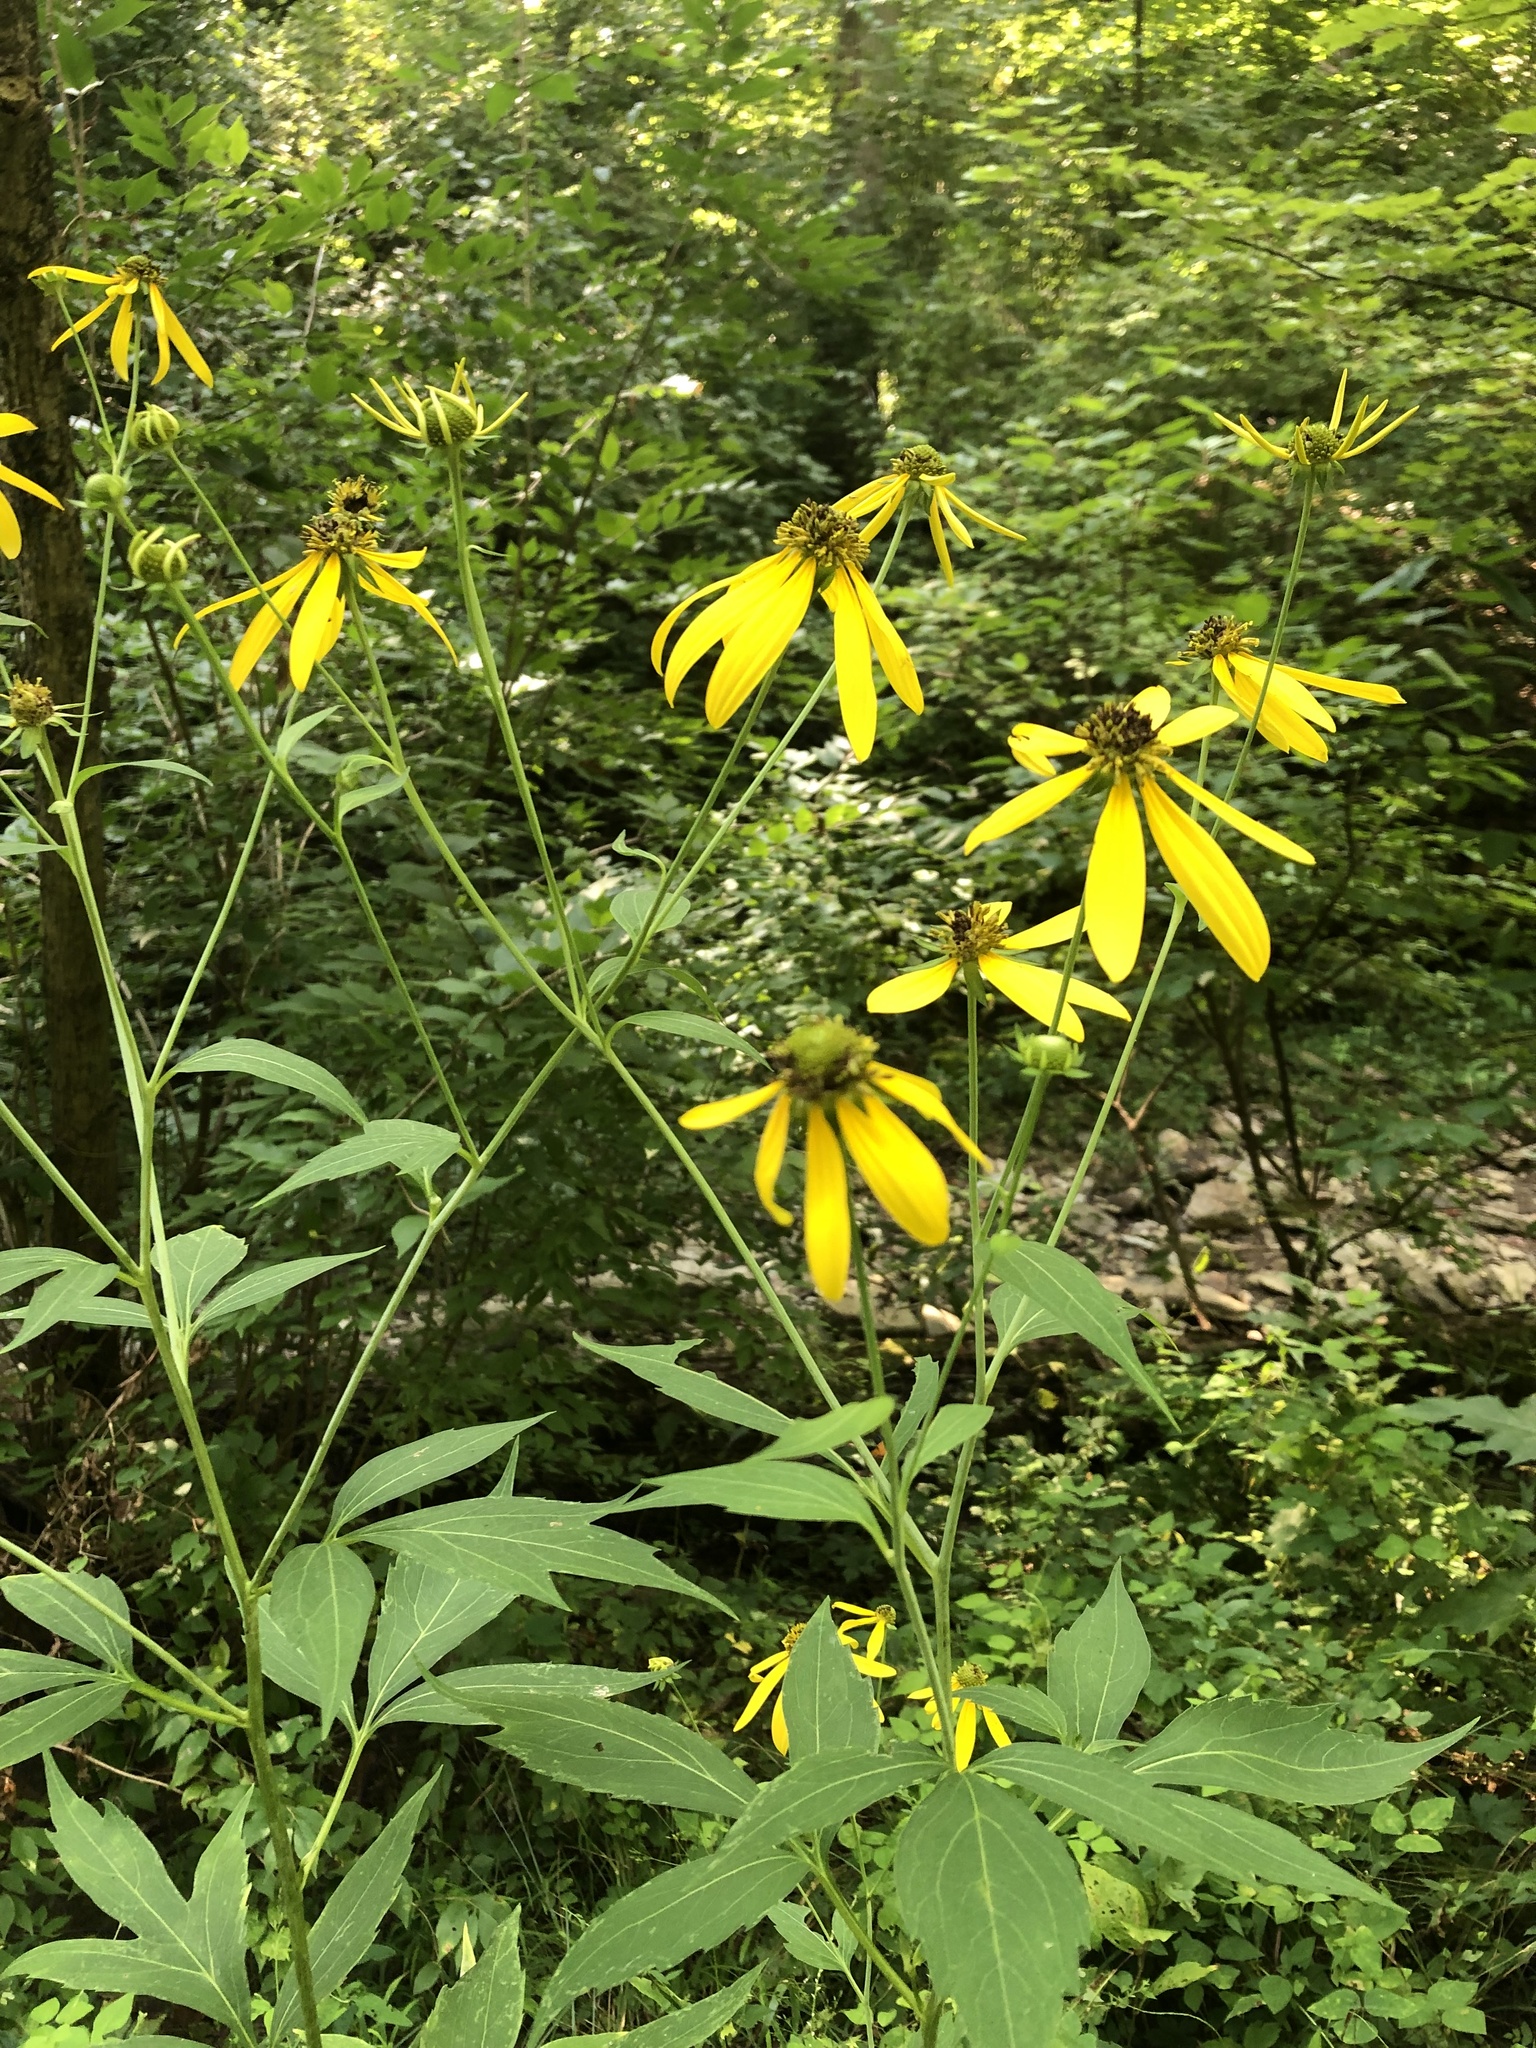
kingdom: Plantae
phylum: Tracheophyta
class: Magnoliopsida
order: Asterales
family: Asteraceae
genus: Rudbeckia
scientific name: Rudbeckia laciniata
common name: Coneflower
